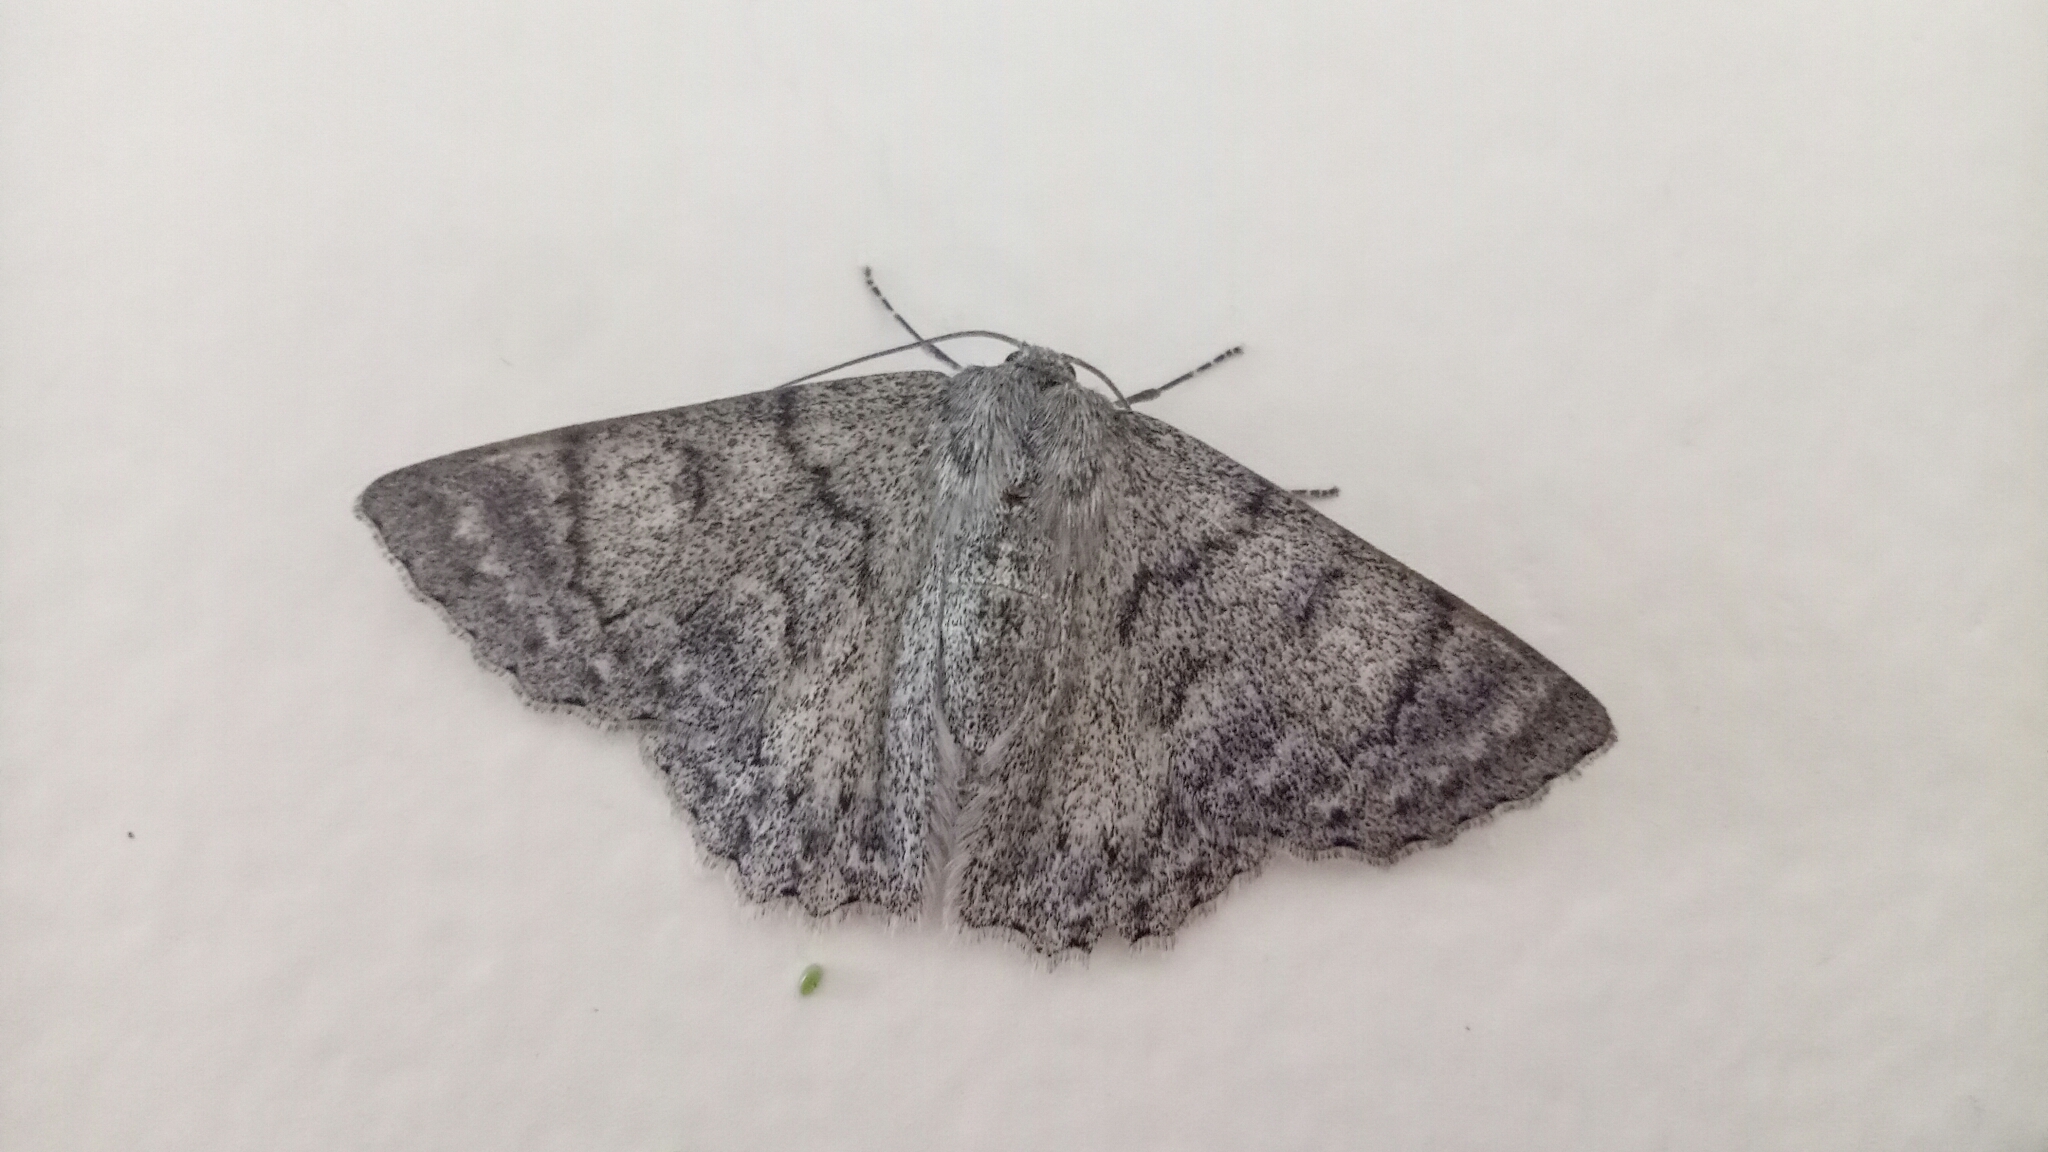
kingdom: Animalia
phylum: Arthropoda
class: Insecta
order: Lepidoptera
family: Geometridae
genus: Crypsiphona
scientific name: Crypsiphona ocultaria
